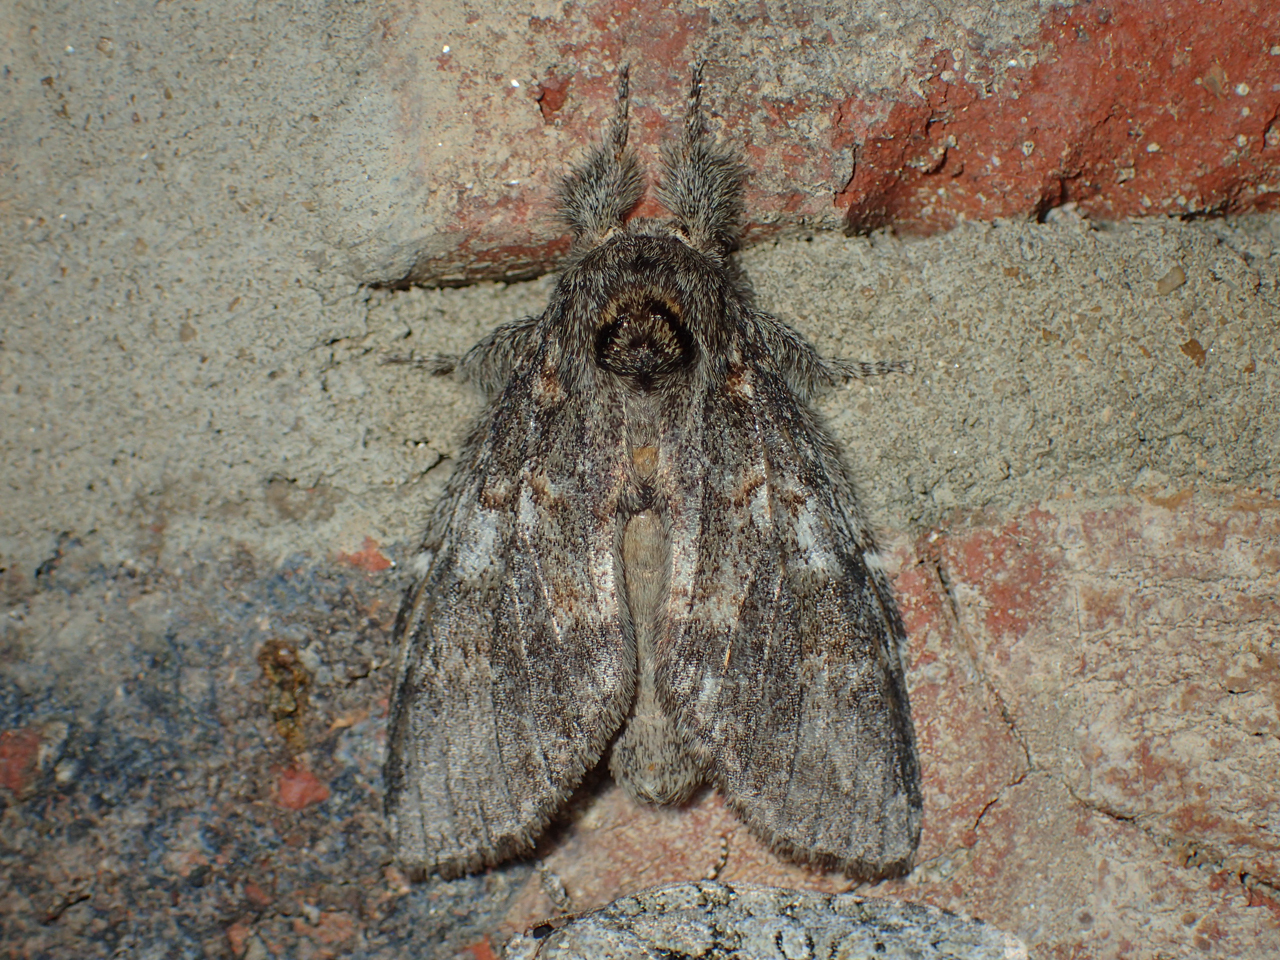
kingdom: Animalia
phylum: Arthropoda
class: Insecta
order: Lepidoptera
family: Notodontidae
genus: Peridea
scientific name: Peridea angulosa
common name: Angulose prominent
